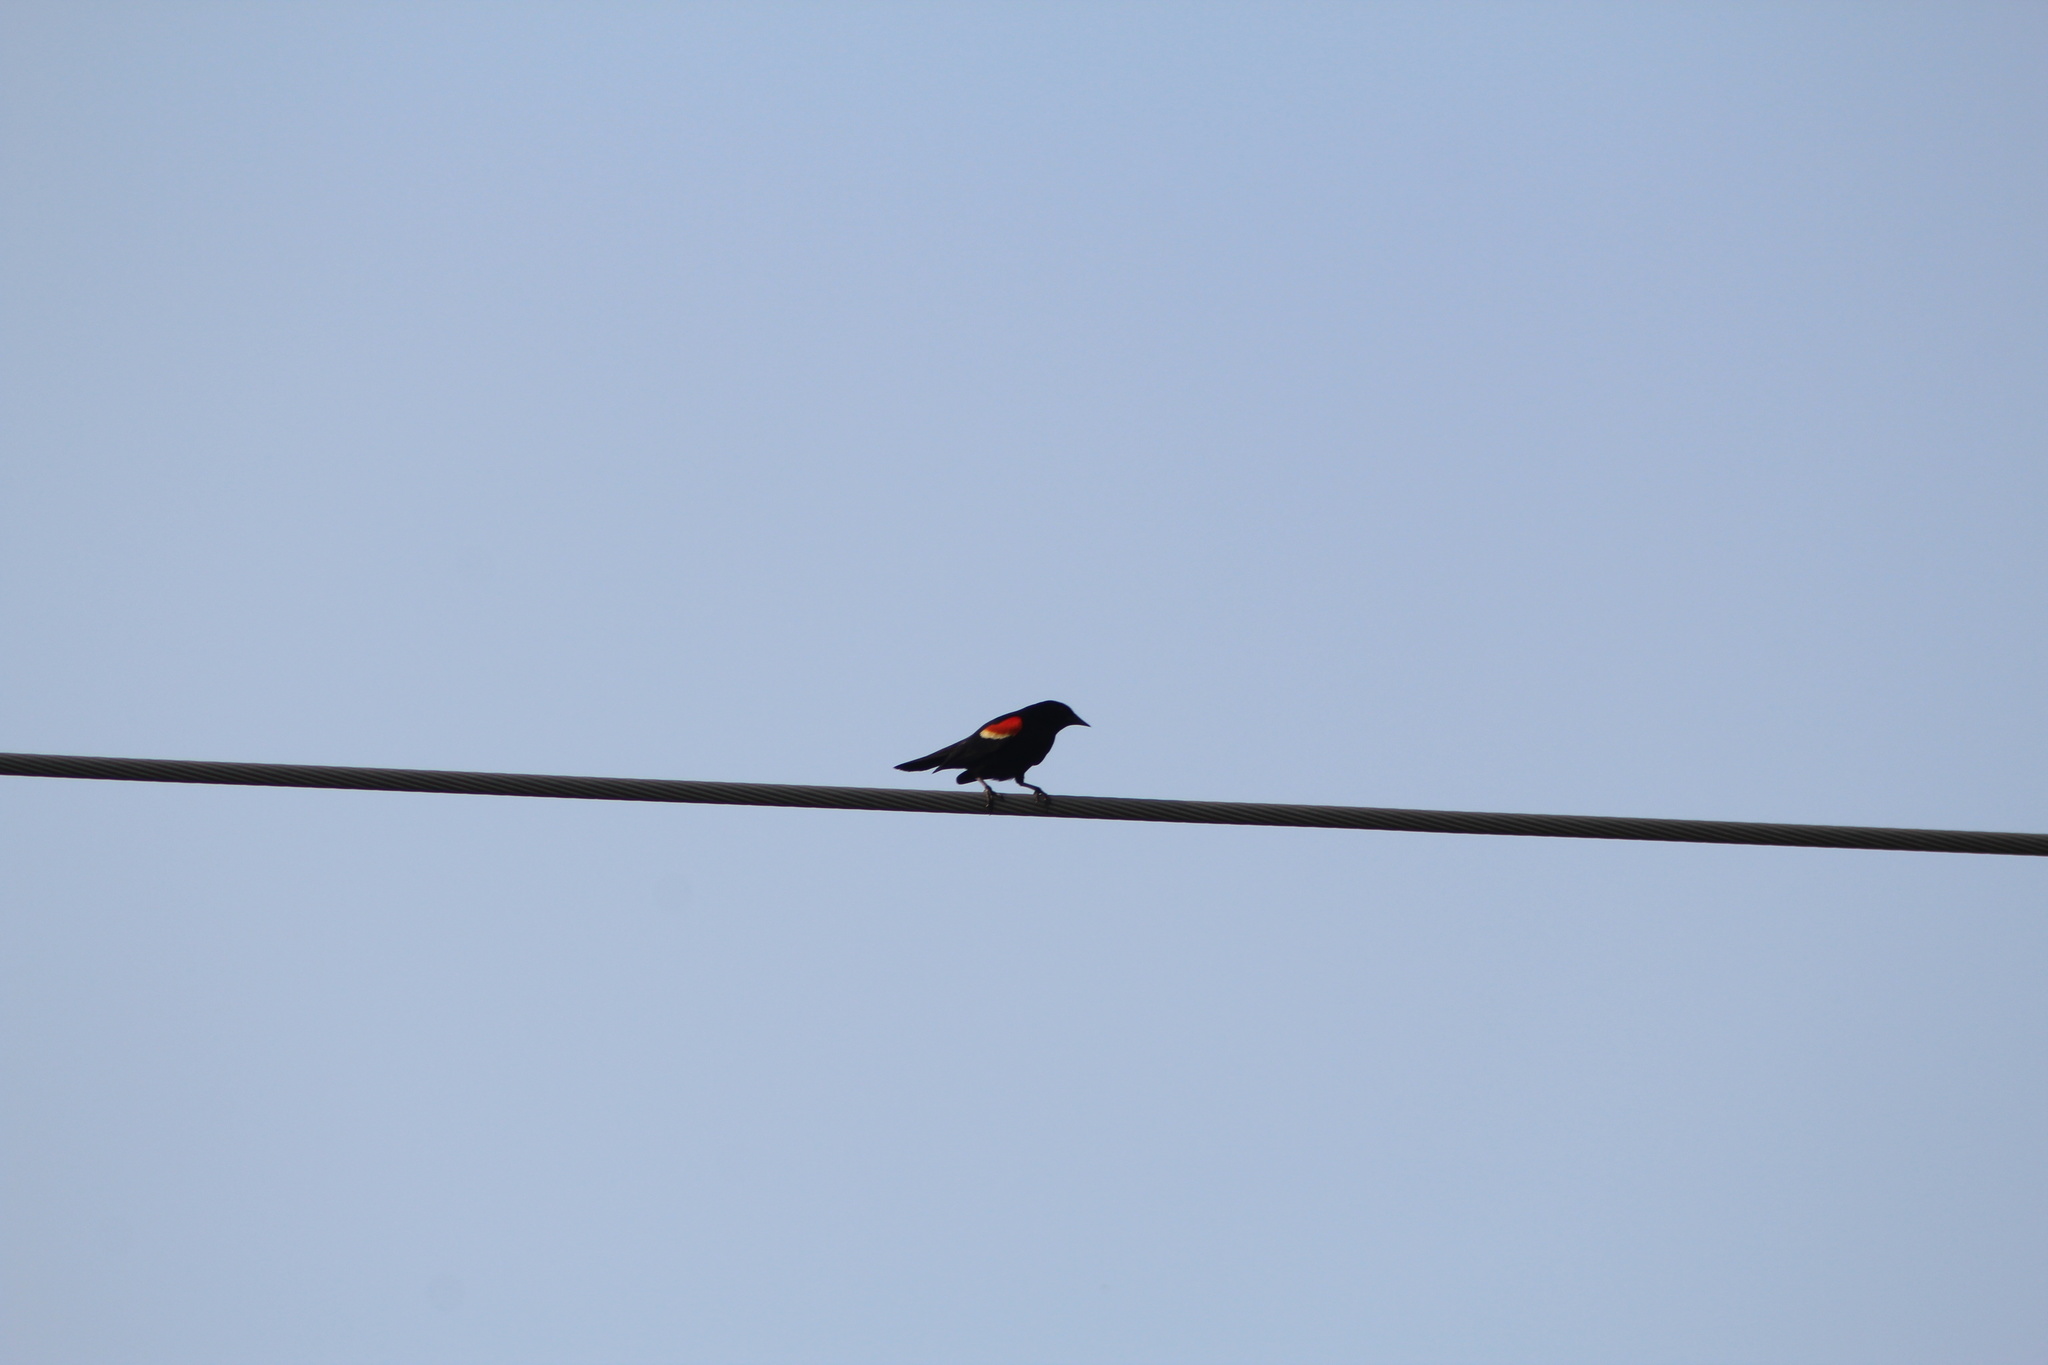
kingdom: Animalia
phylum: Chordata
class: Aves
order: Passeriformes
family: Icteridae
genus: Agelaius
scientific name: Agelaius phoeniceus
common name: Red-winged blackbird
